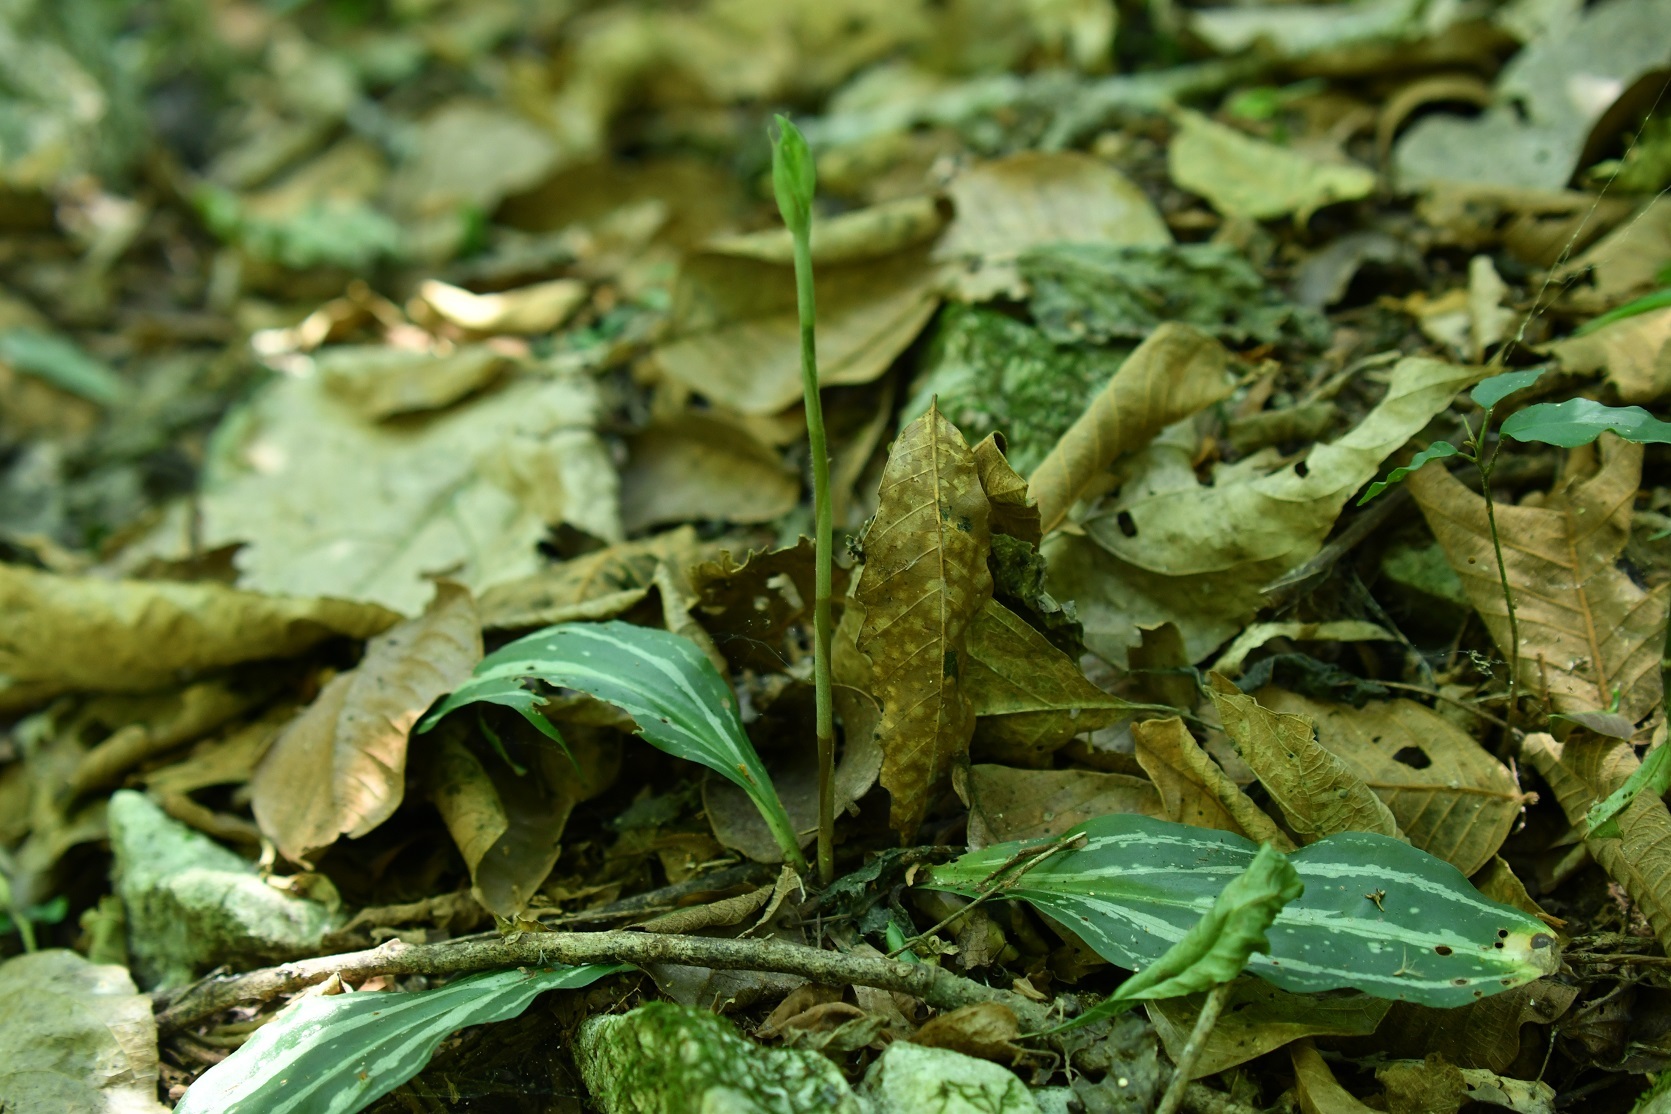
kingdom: Plantae
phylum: Tracheophyta
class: Liliopsida
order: Asparagales
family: Orchidaceae
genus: Sarcoglottis
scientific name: Sarcoglottis sceptrodes
